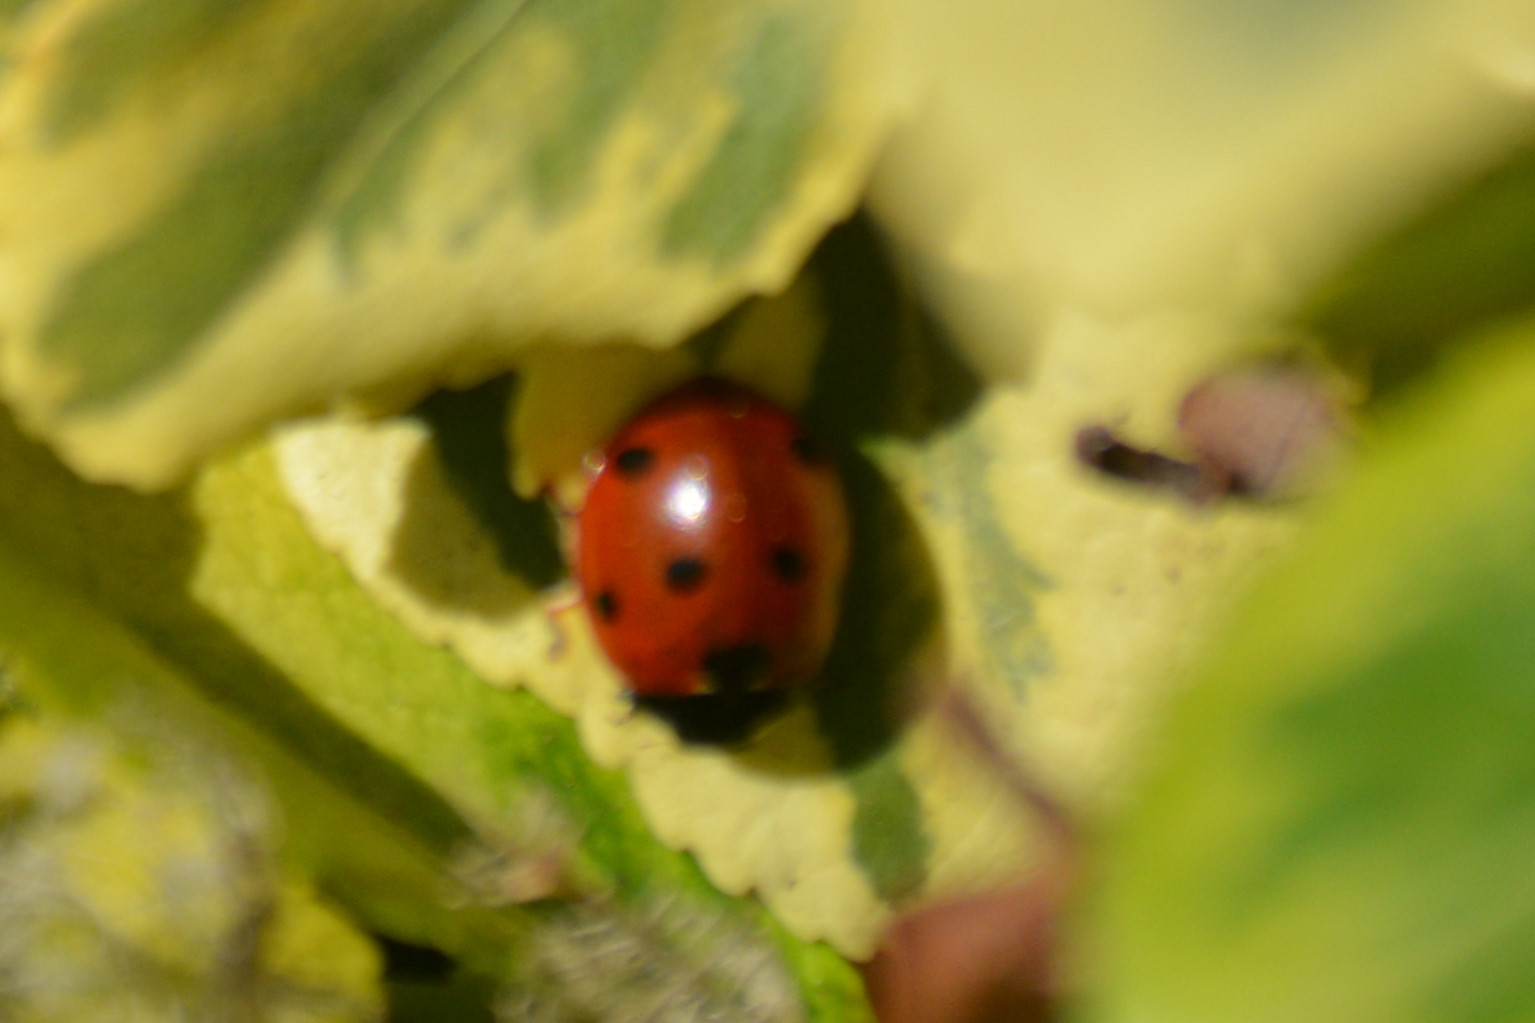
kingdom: Animalia
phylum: Arthropoda
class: Insecta
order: Coleoptera
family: Coccinellidae
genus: Coccinella
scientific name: Coccinella septempunctata
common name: Sevenspotted lady beetle
